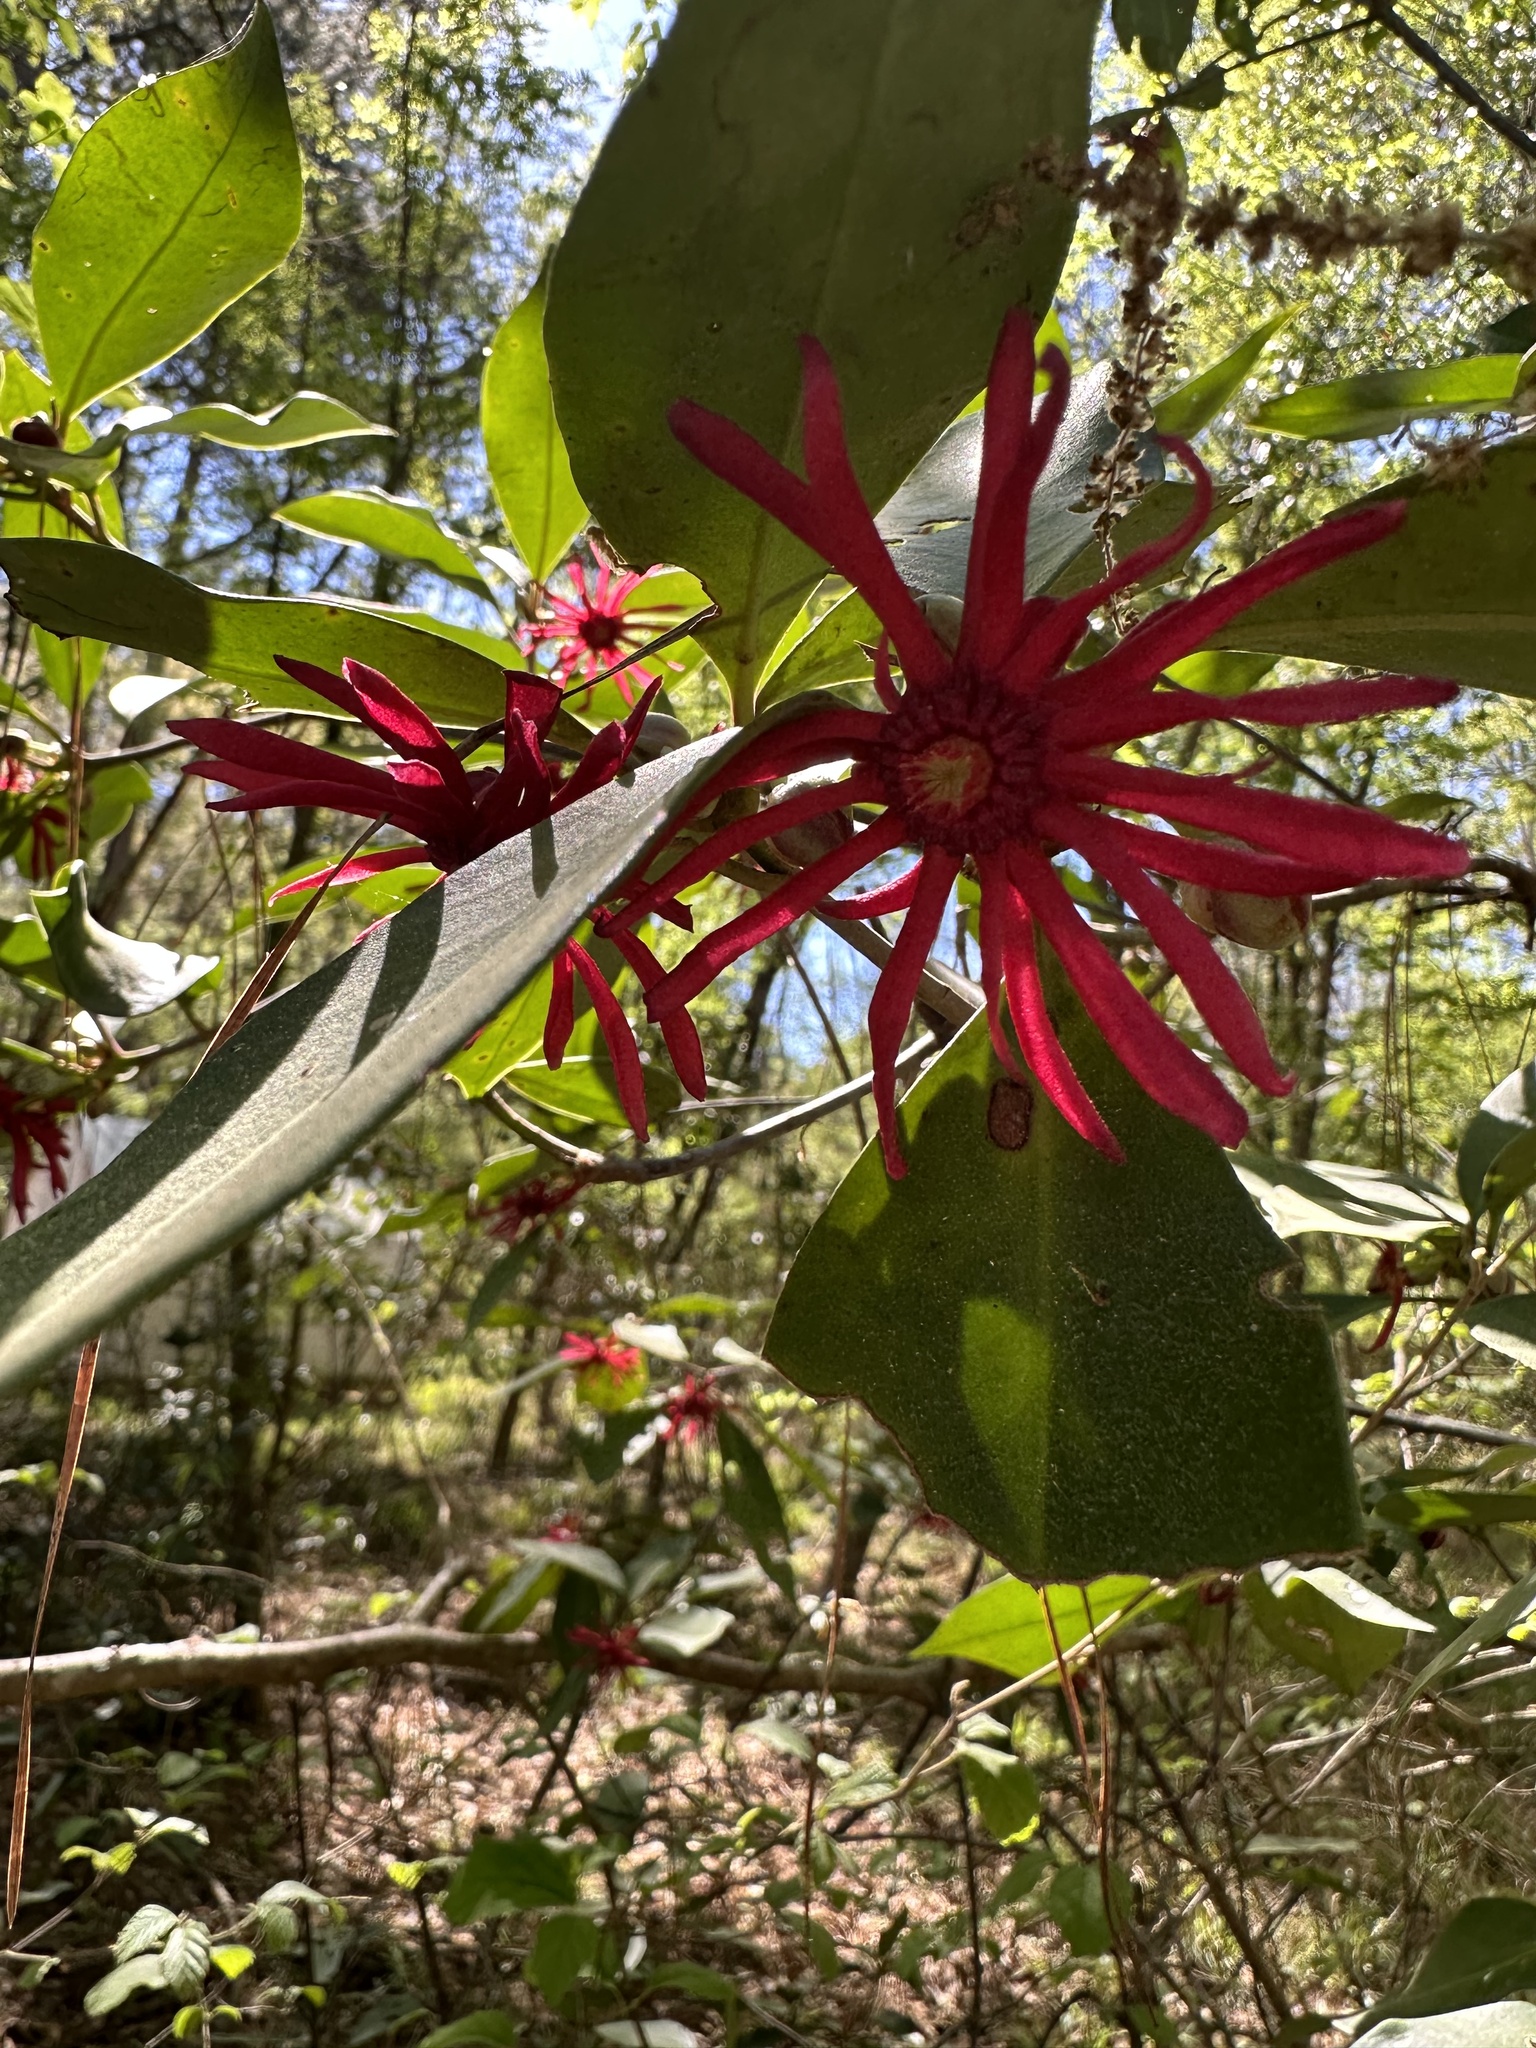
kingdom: Plantae
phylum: Tracheophyta
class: Magnoliopsida
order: Austrobaileyales
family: Schisandraceae
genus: Illicium
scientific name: Illicium floridanum
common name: Florida anisetree
